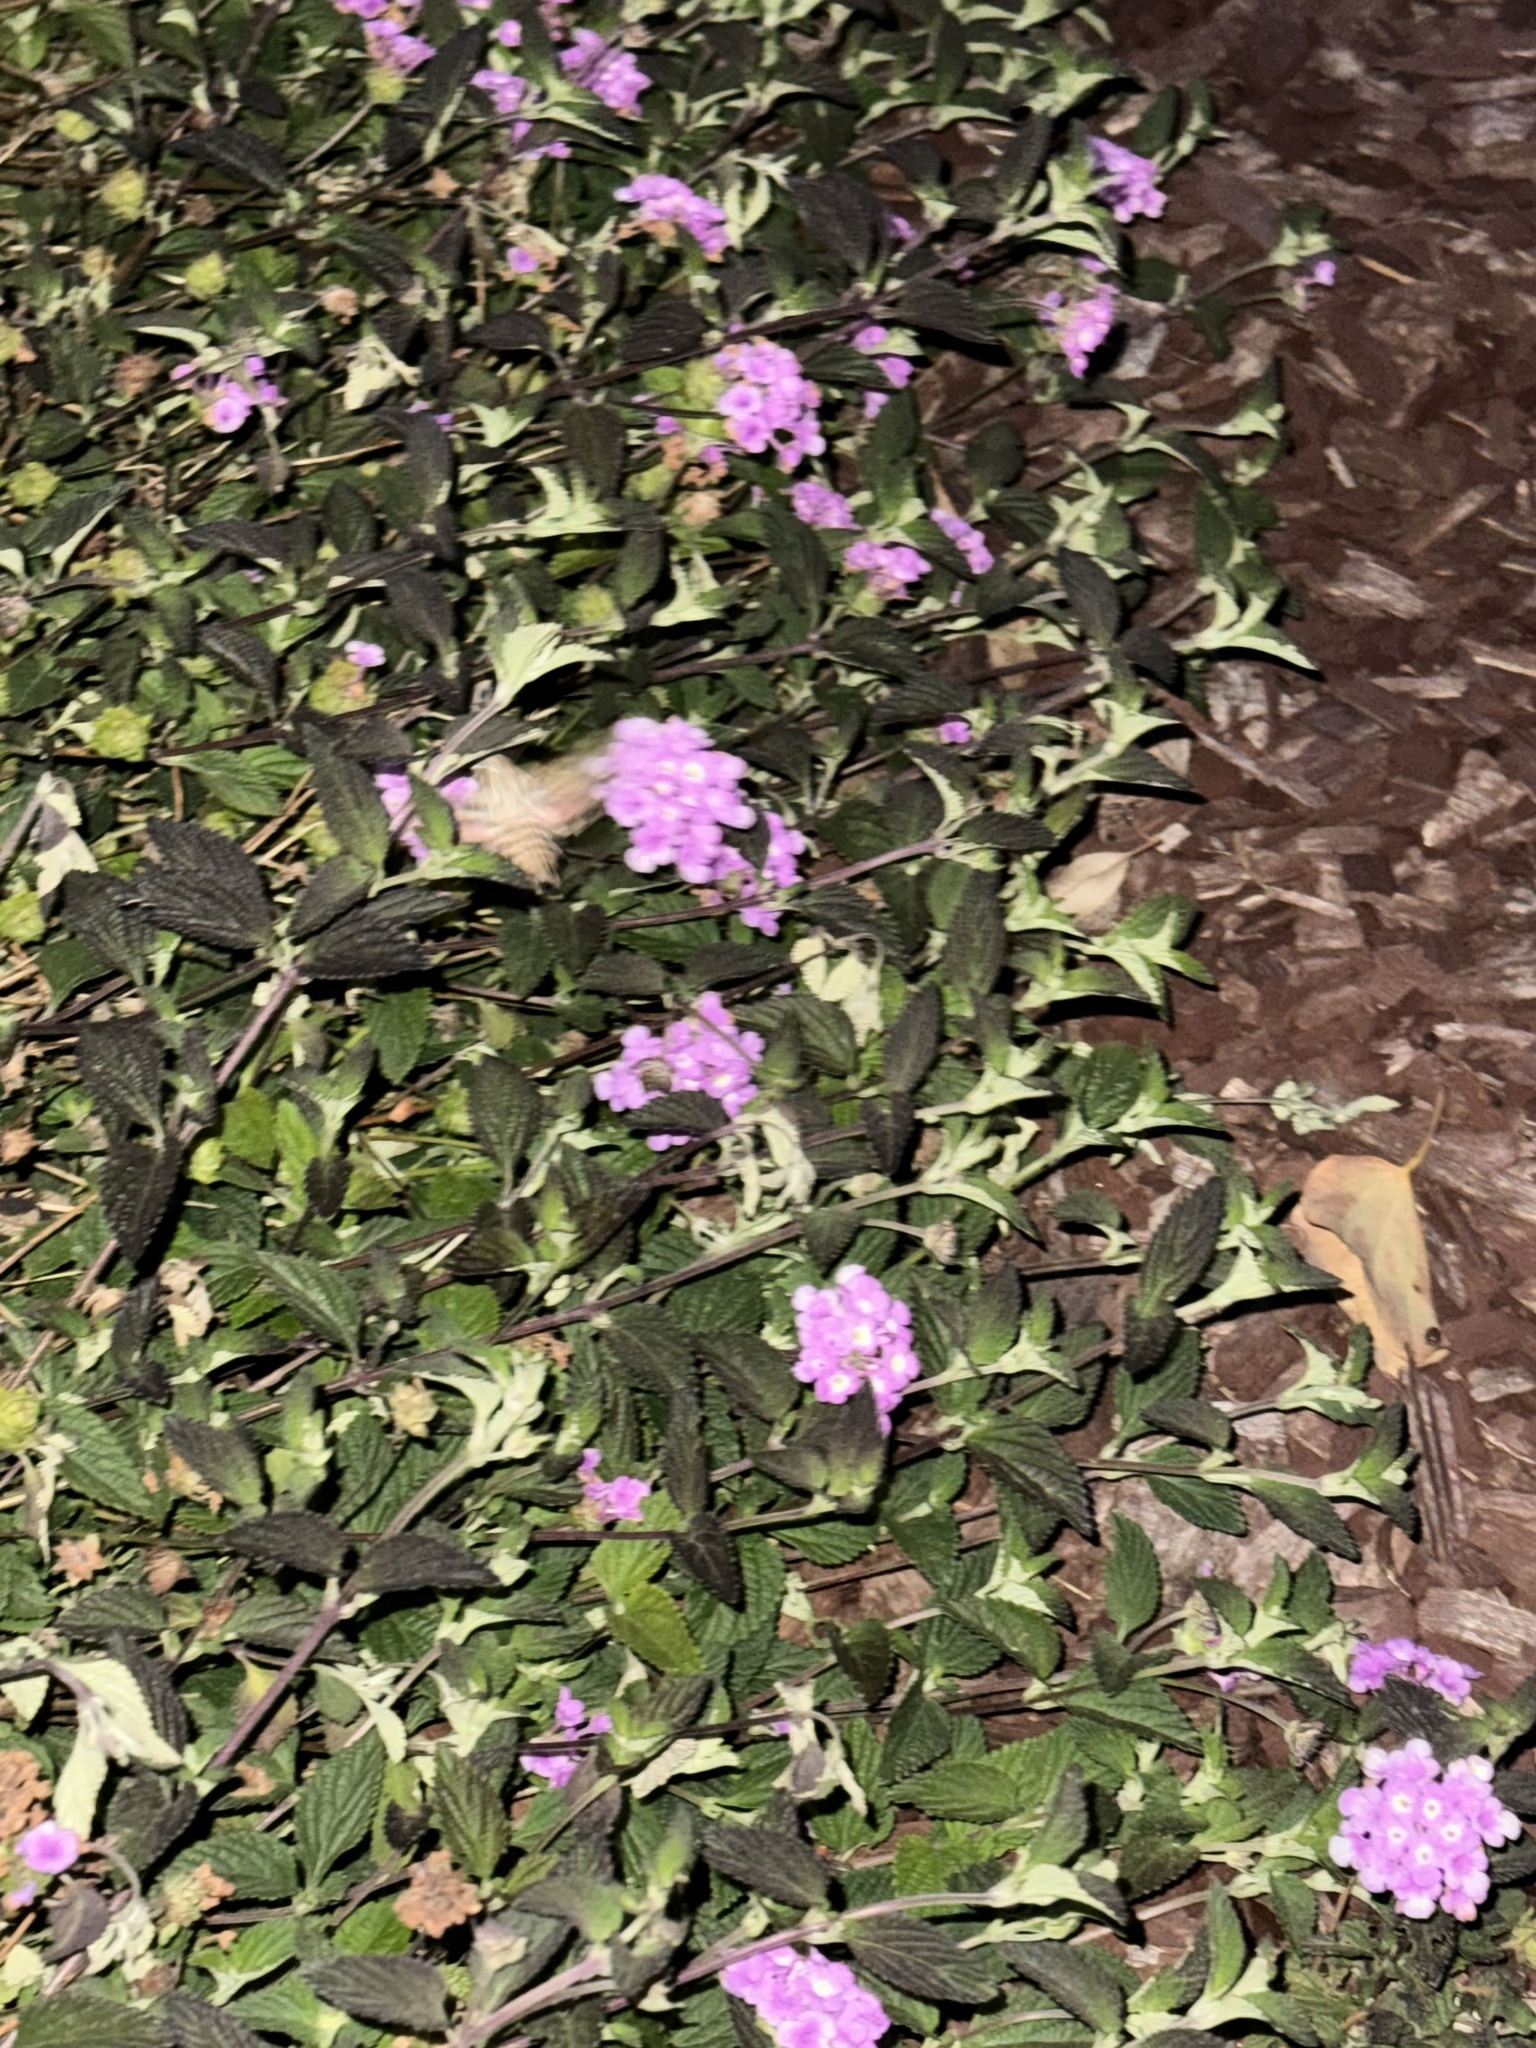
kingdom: Animalia
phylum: Arthropoda
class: Insecta
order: Lepidoptera
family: Sphingidae
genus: Hyles
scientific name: Hyles lineata
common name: White-lined sphinx
